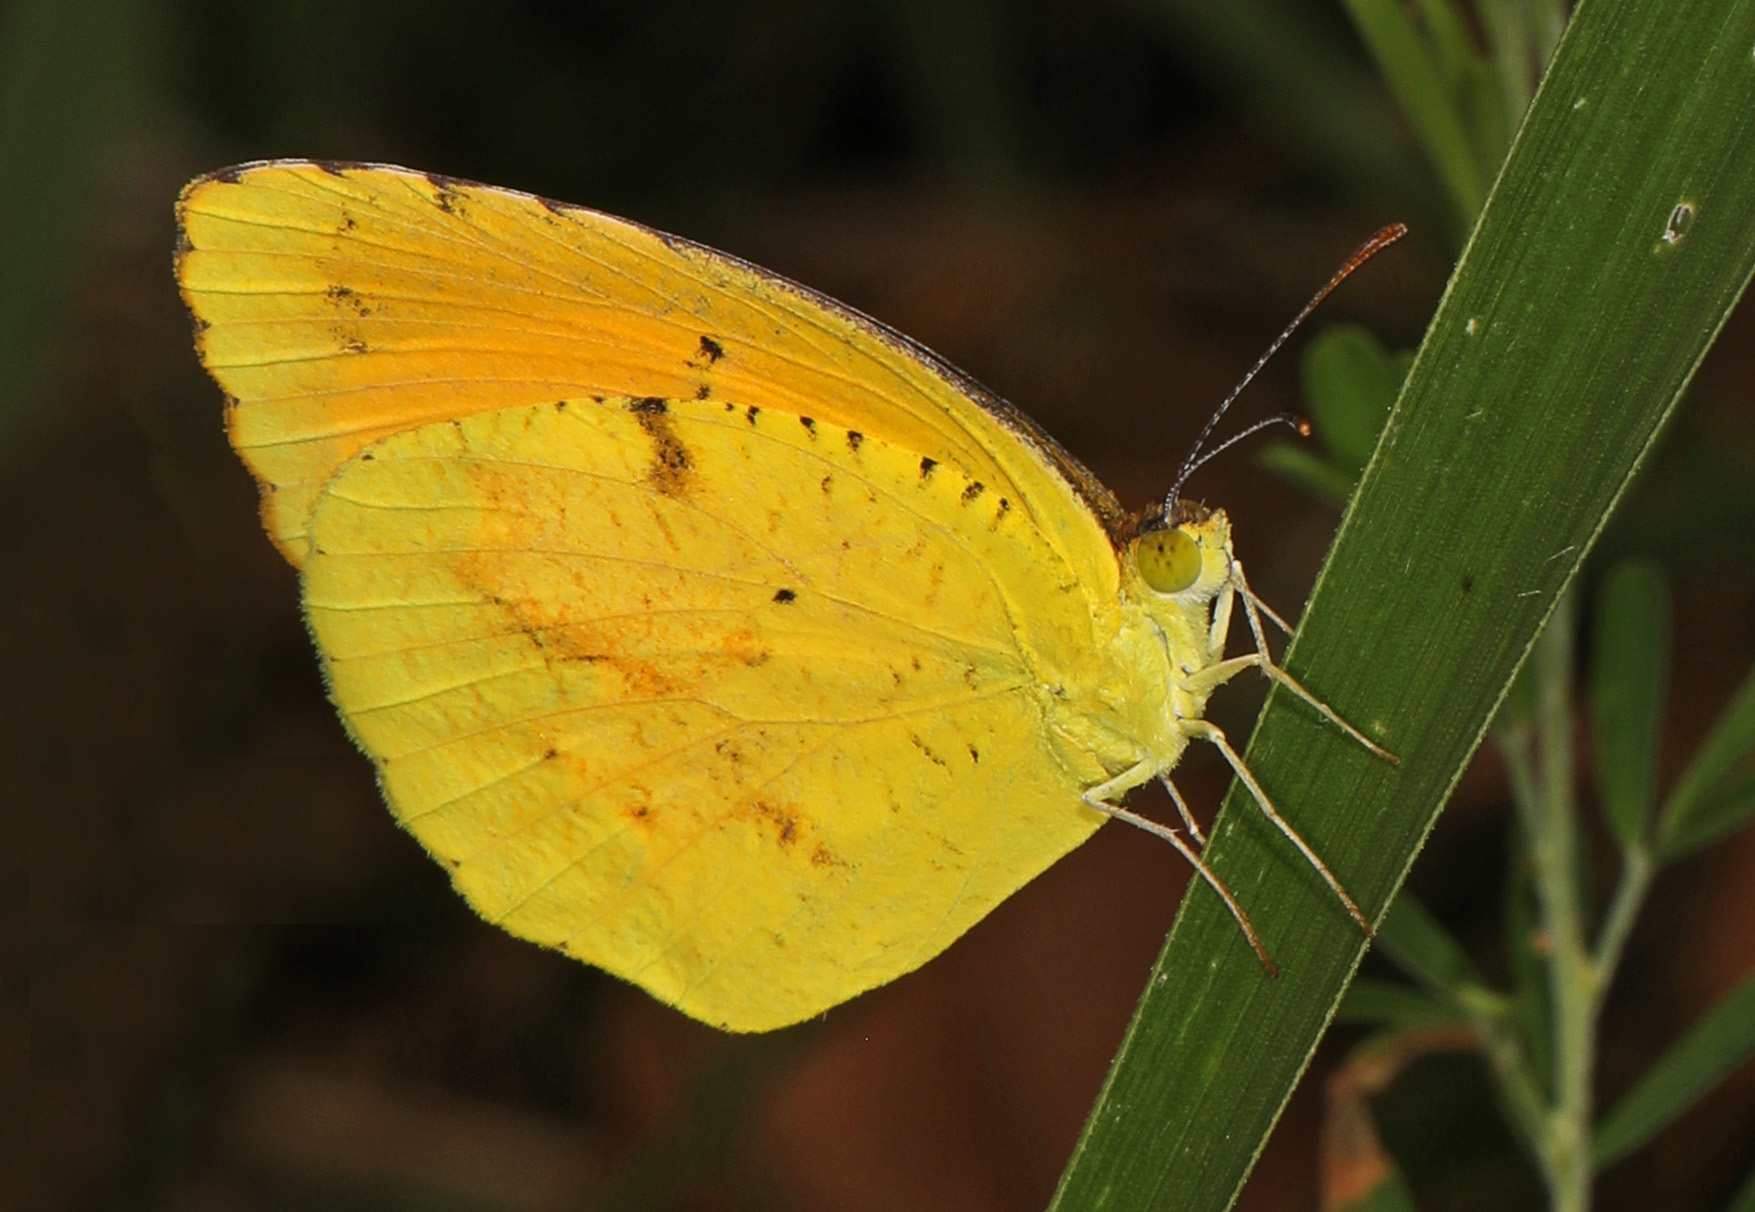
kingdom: Animalia
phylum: Arthropoda
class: Insecta
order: Lepidoptera
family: Pieridae
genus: Abaeis
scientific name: Abaeis nicippe
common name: Sleepy orange
